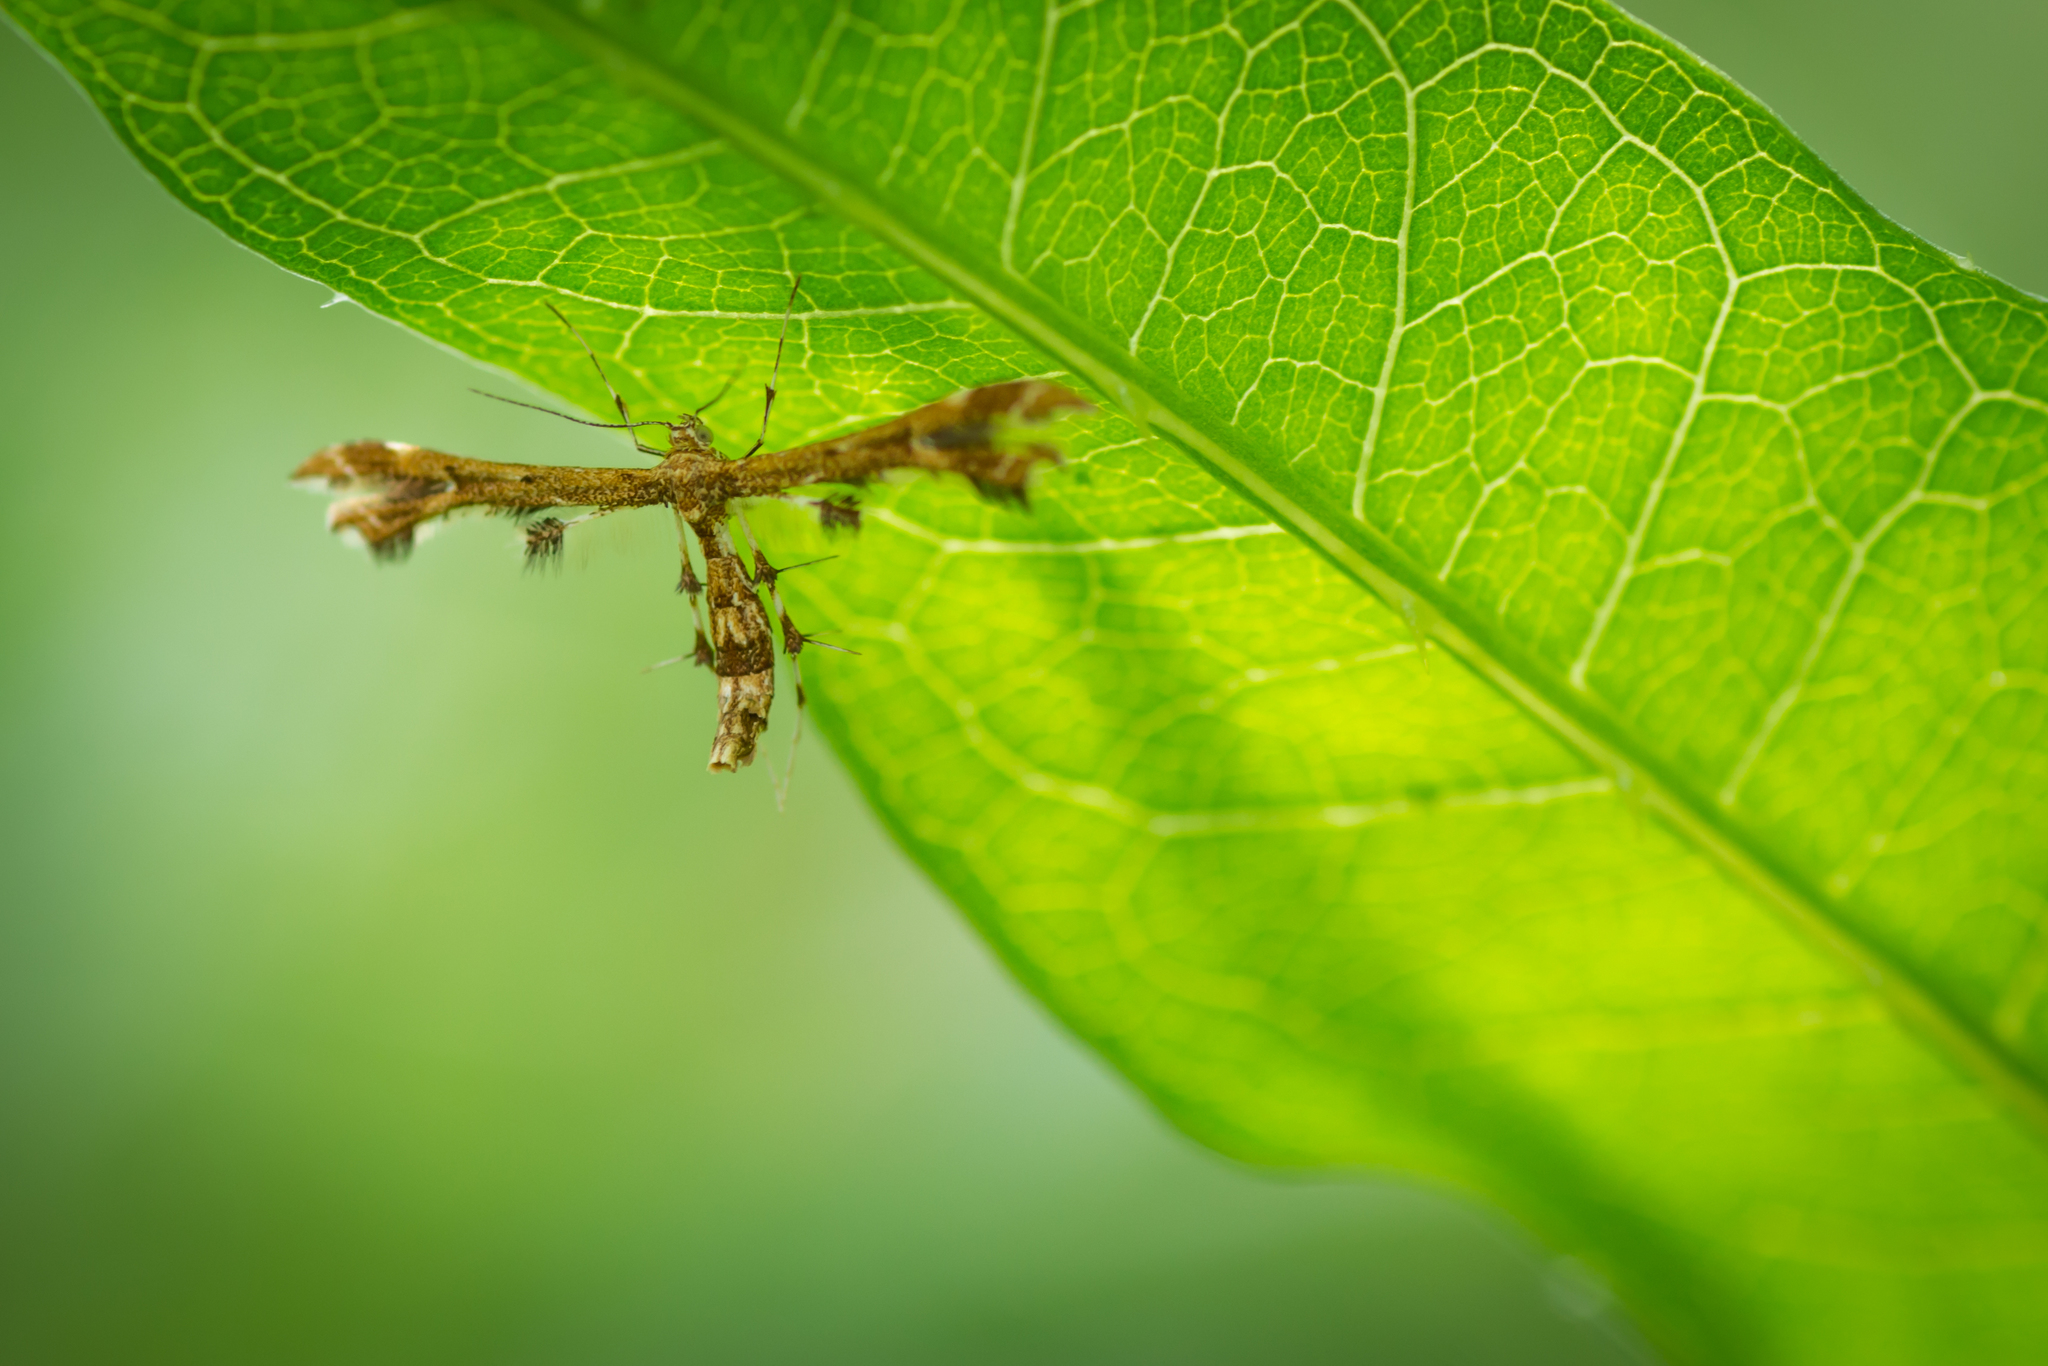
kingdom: Animalia
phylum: Arthropoda
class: Insecta
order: Lepidoptera
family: Pterophoridae
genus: Geina
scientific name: Geina periscelidactylus
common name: Grape plume moth
